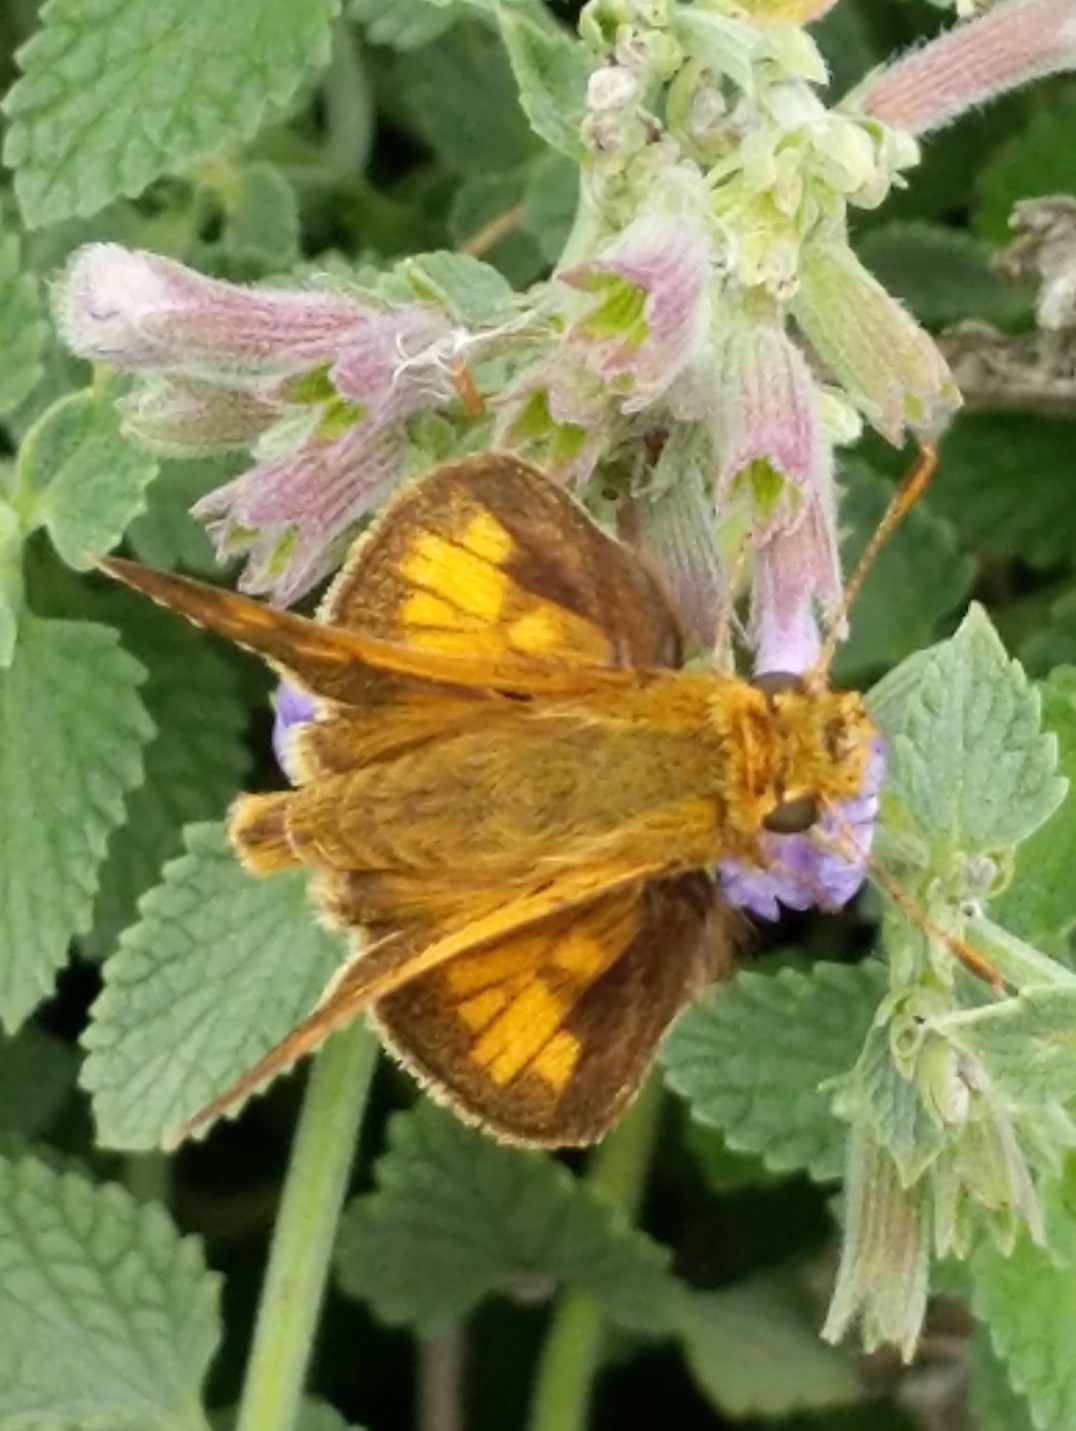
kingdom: Animalia
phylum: Arthropoda
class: Insecta
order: Lepidoptera
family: Hesperiidae
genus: Polites
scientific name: Polites coras
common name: Peck's skipper
